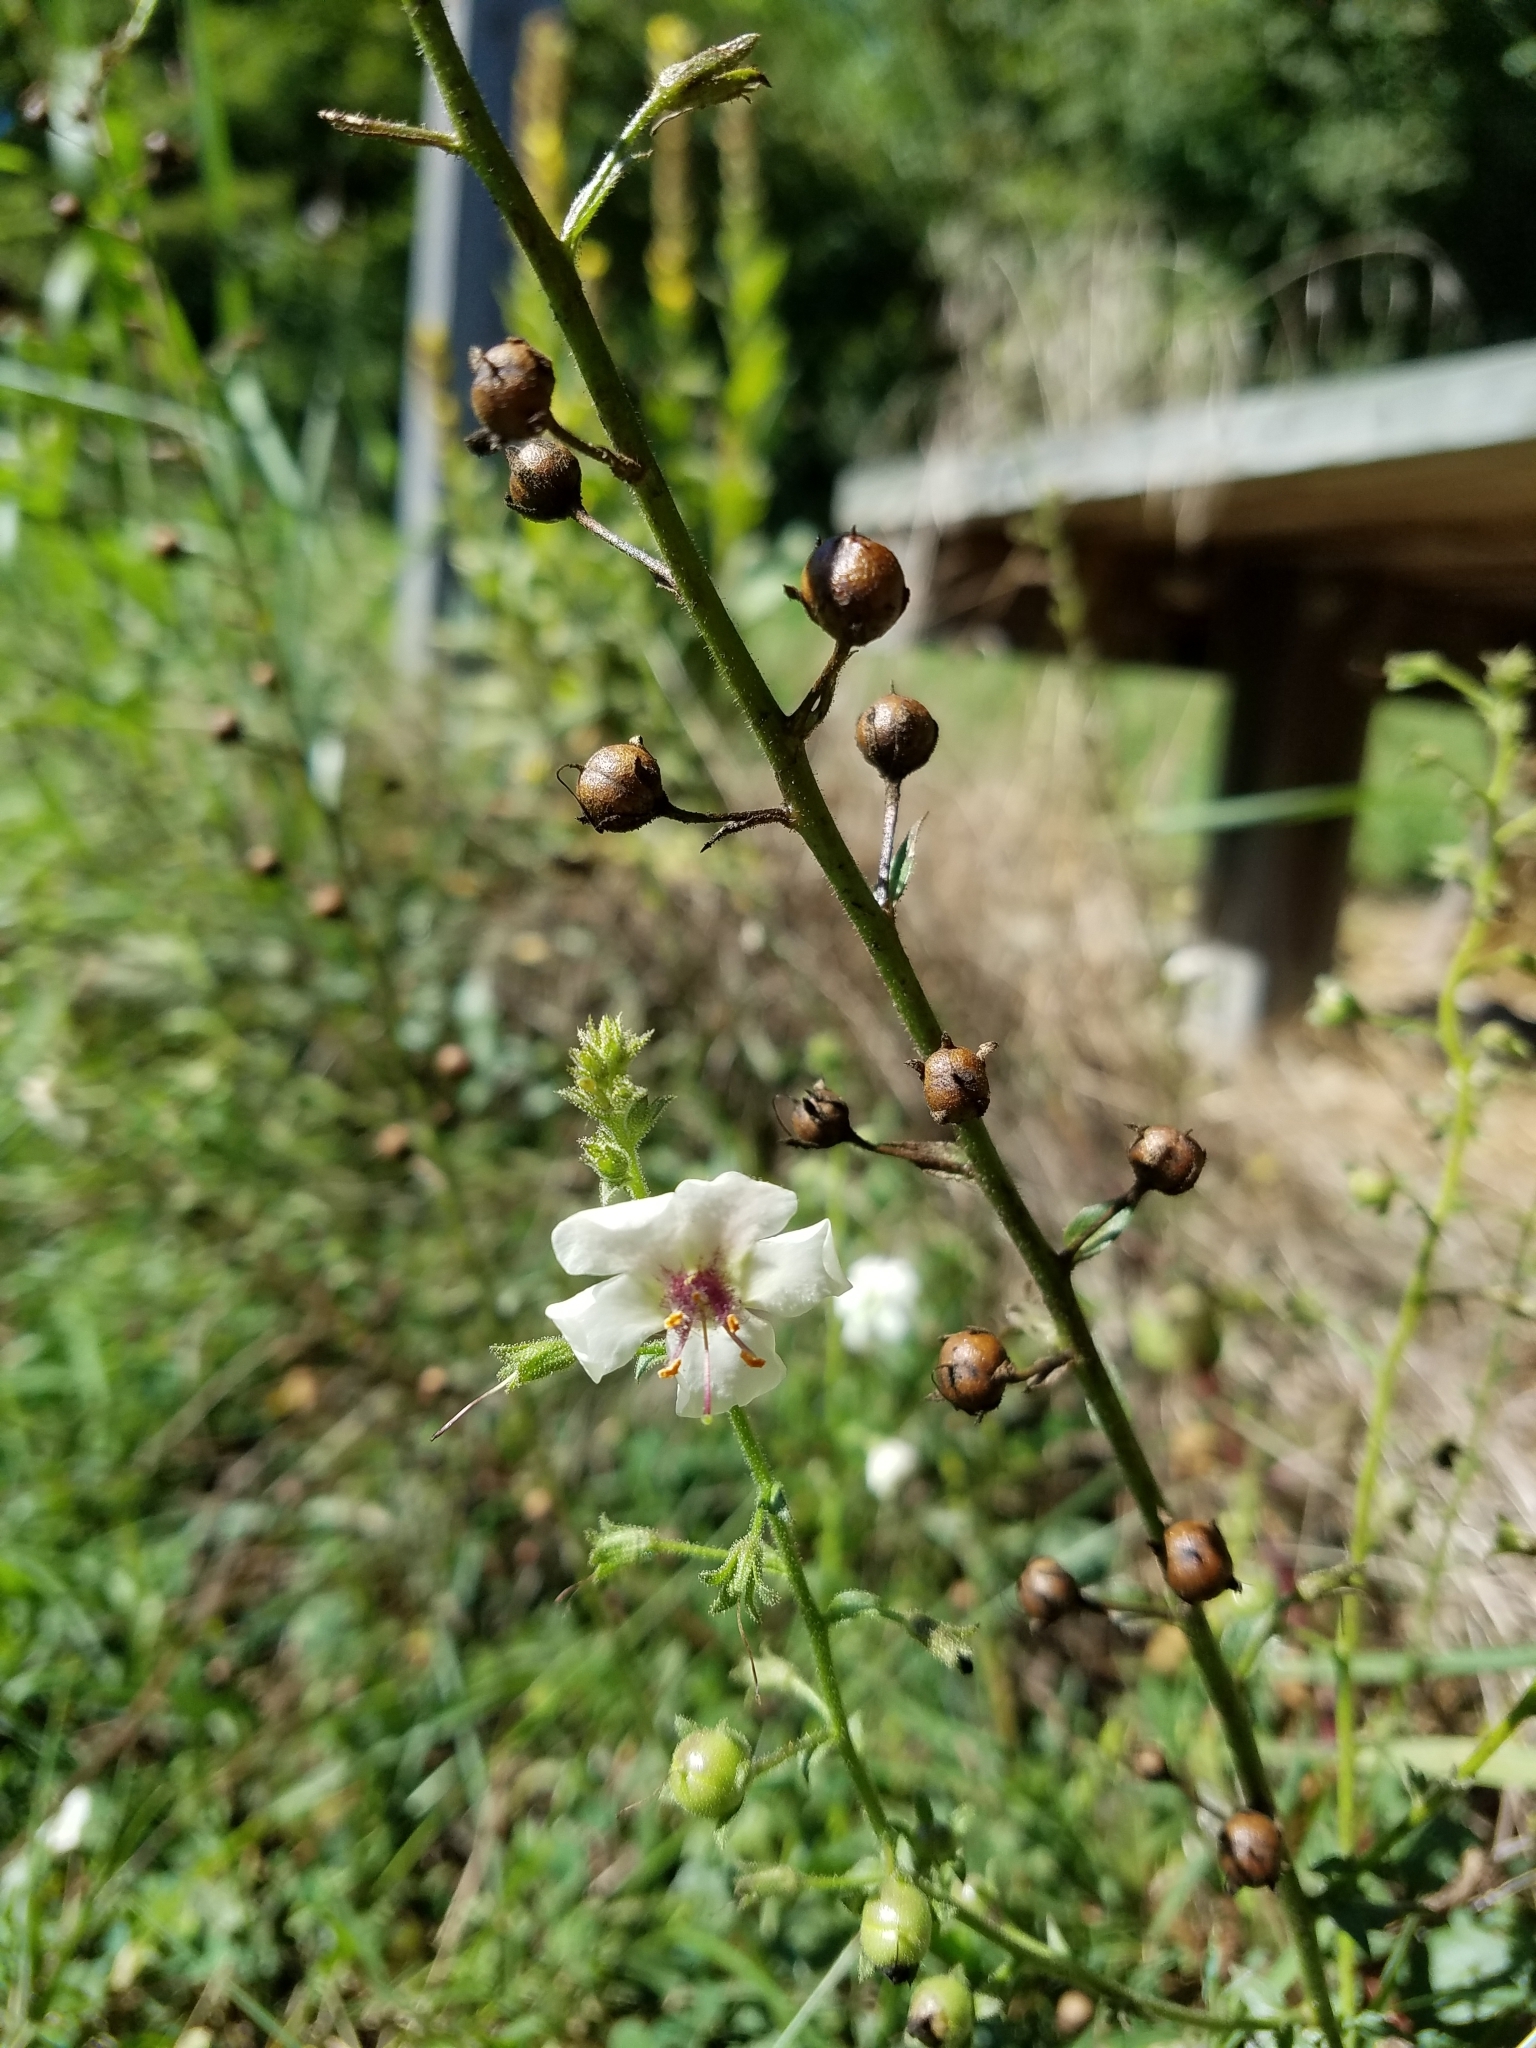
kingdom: Plantae
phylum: Tracheophyta
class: Magnoliopsida
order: Lamiales
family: Scrophulariaceae
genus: Verbascum
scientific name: Verbascum blattaria
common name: Moth mullein
